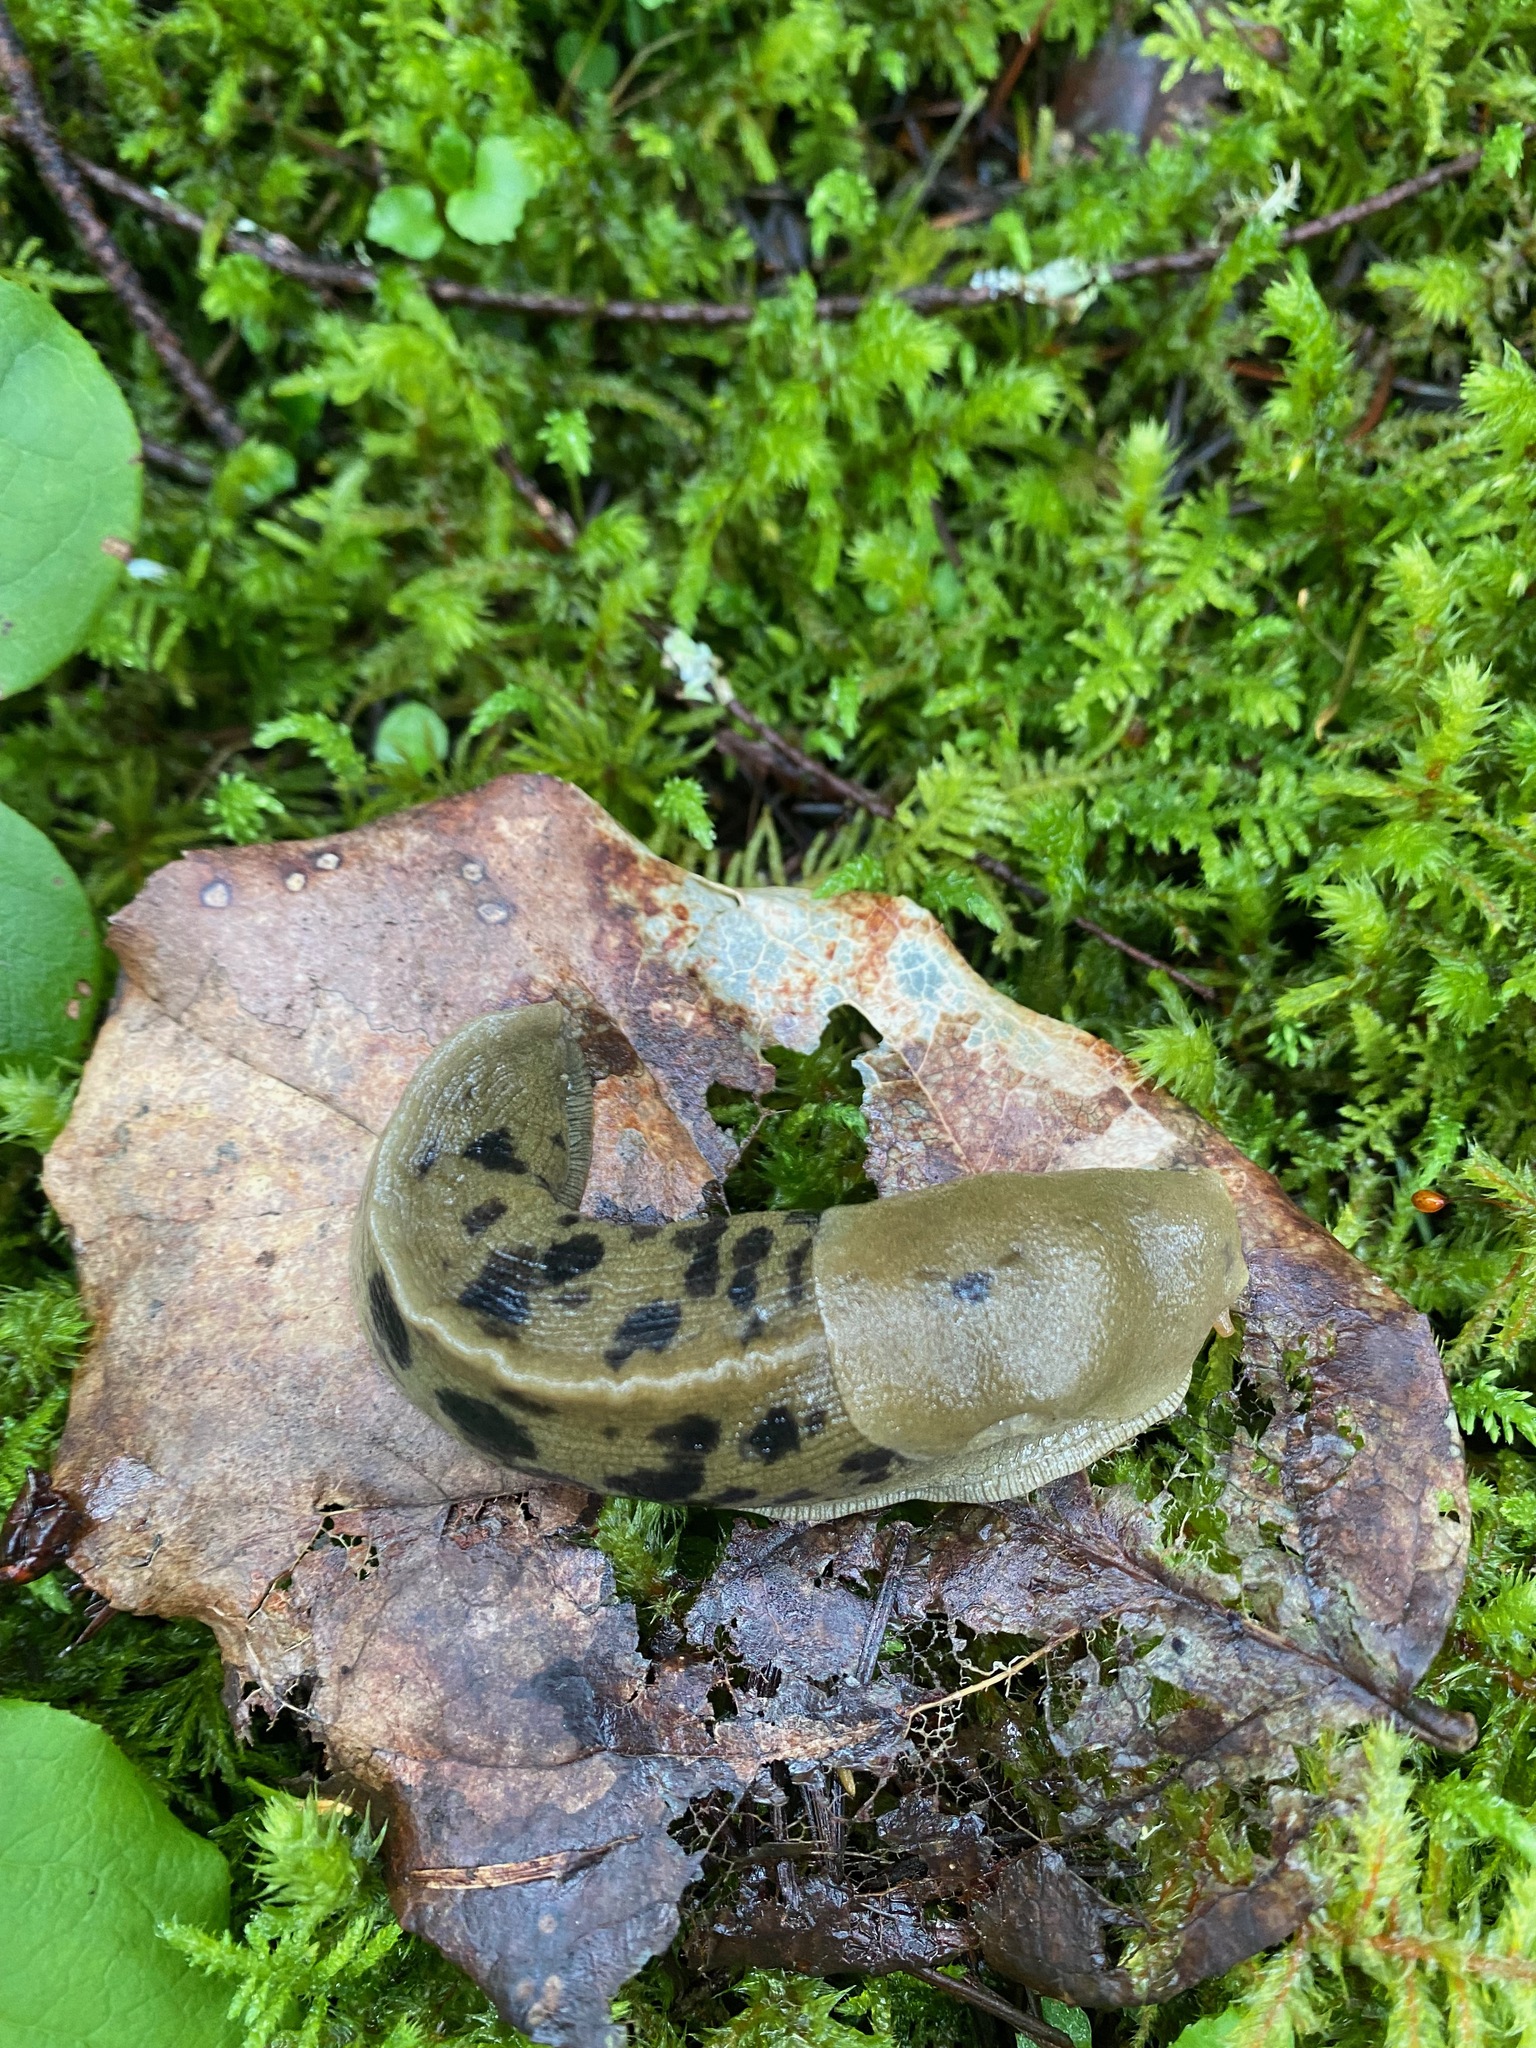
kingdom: Animalia
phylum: Mollusca
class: Gastropoda
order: Stylommatophora
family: Ariolimacidae
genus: Ariolimax
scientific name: Ariolimax columbianus
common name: Pacific banana slug
